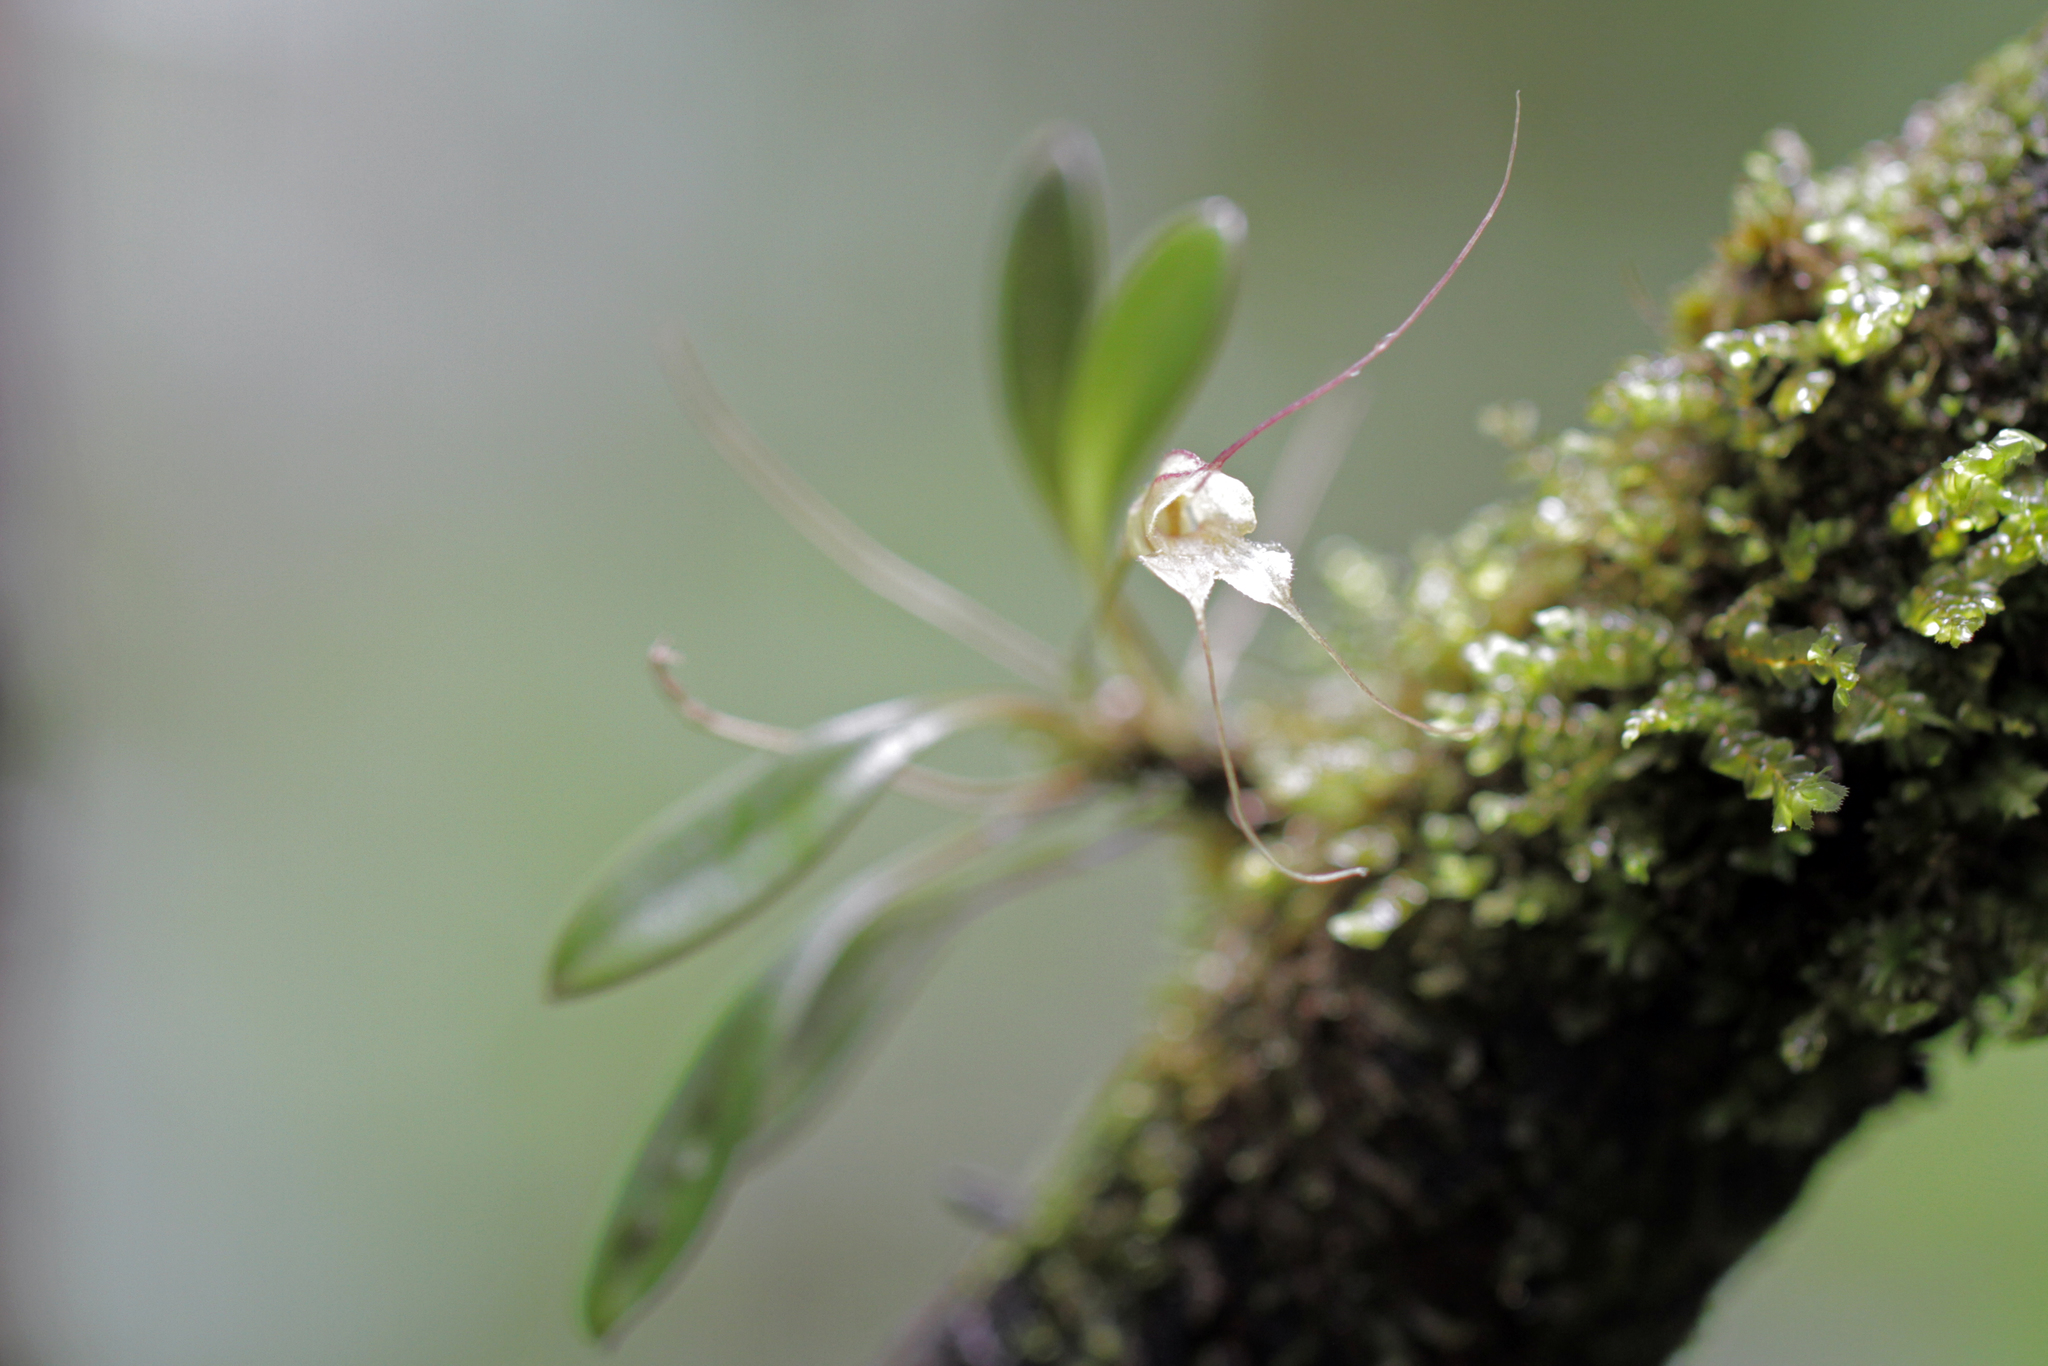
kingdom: Plantae
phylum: Tracheophyta
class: Liliopsida
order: Asparagales
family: Orchidaceae
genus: Masdevallia
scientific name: Masdevallia nidifica
